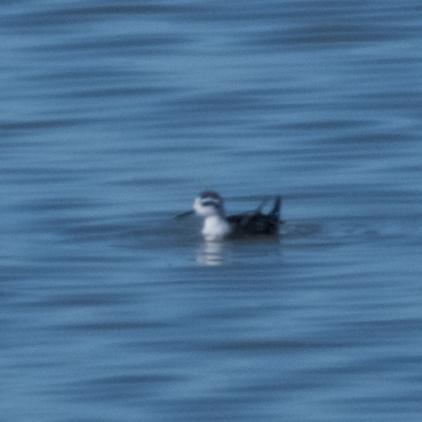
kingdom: Animalia
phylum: Chordata
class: Aves
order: Charadriiformes
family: Scolopacidae
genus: Phalaropus
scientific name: Phalaropus lobatus
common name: Red-necked phalarope
